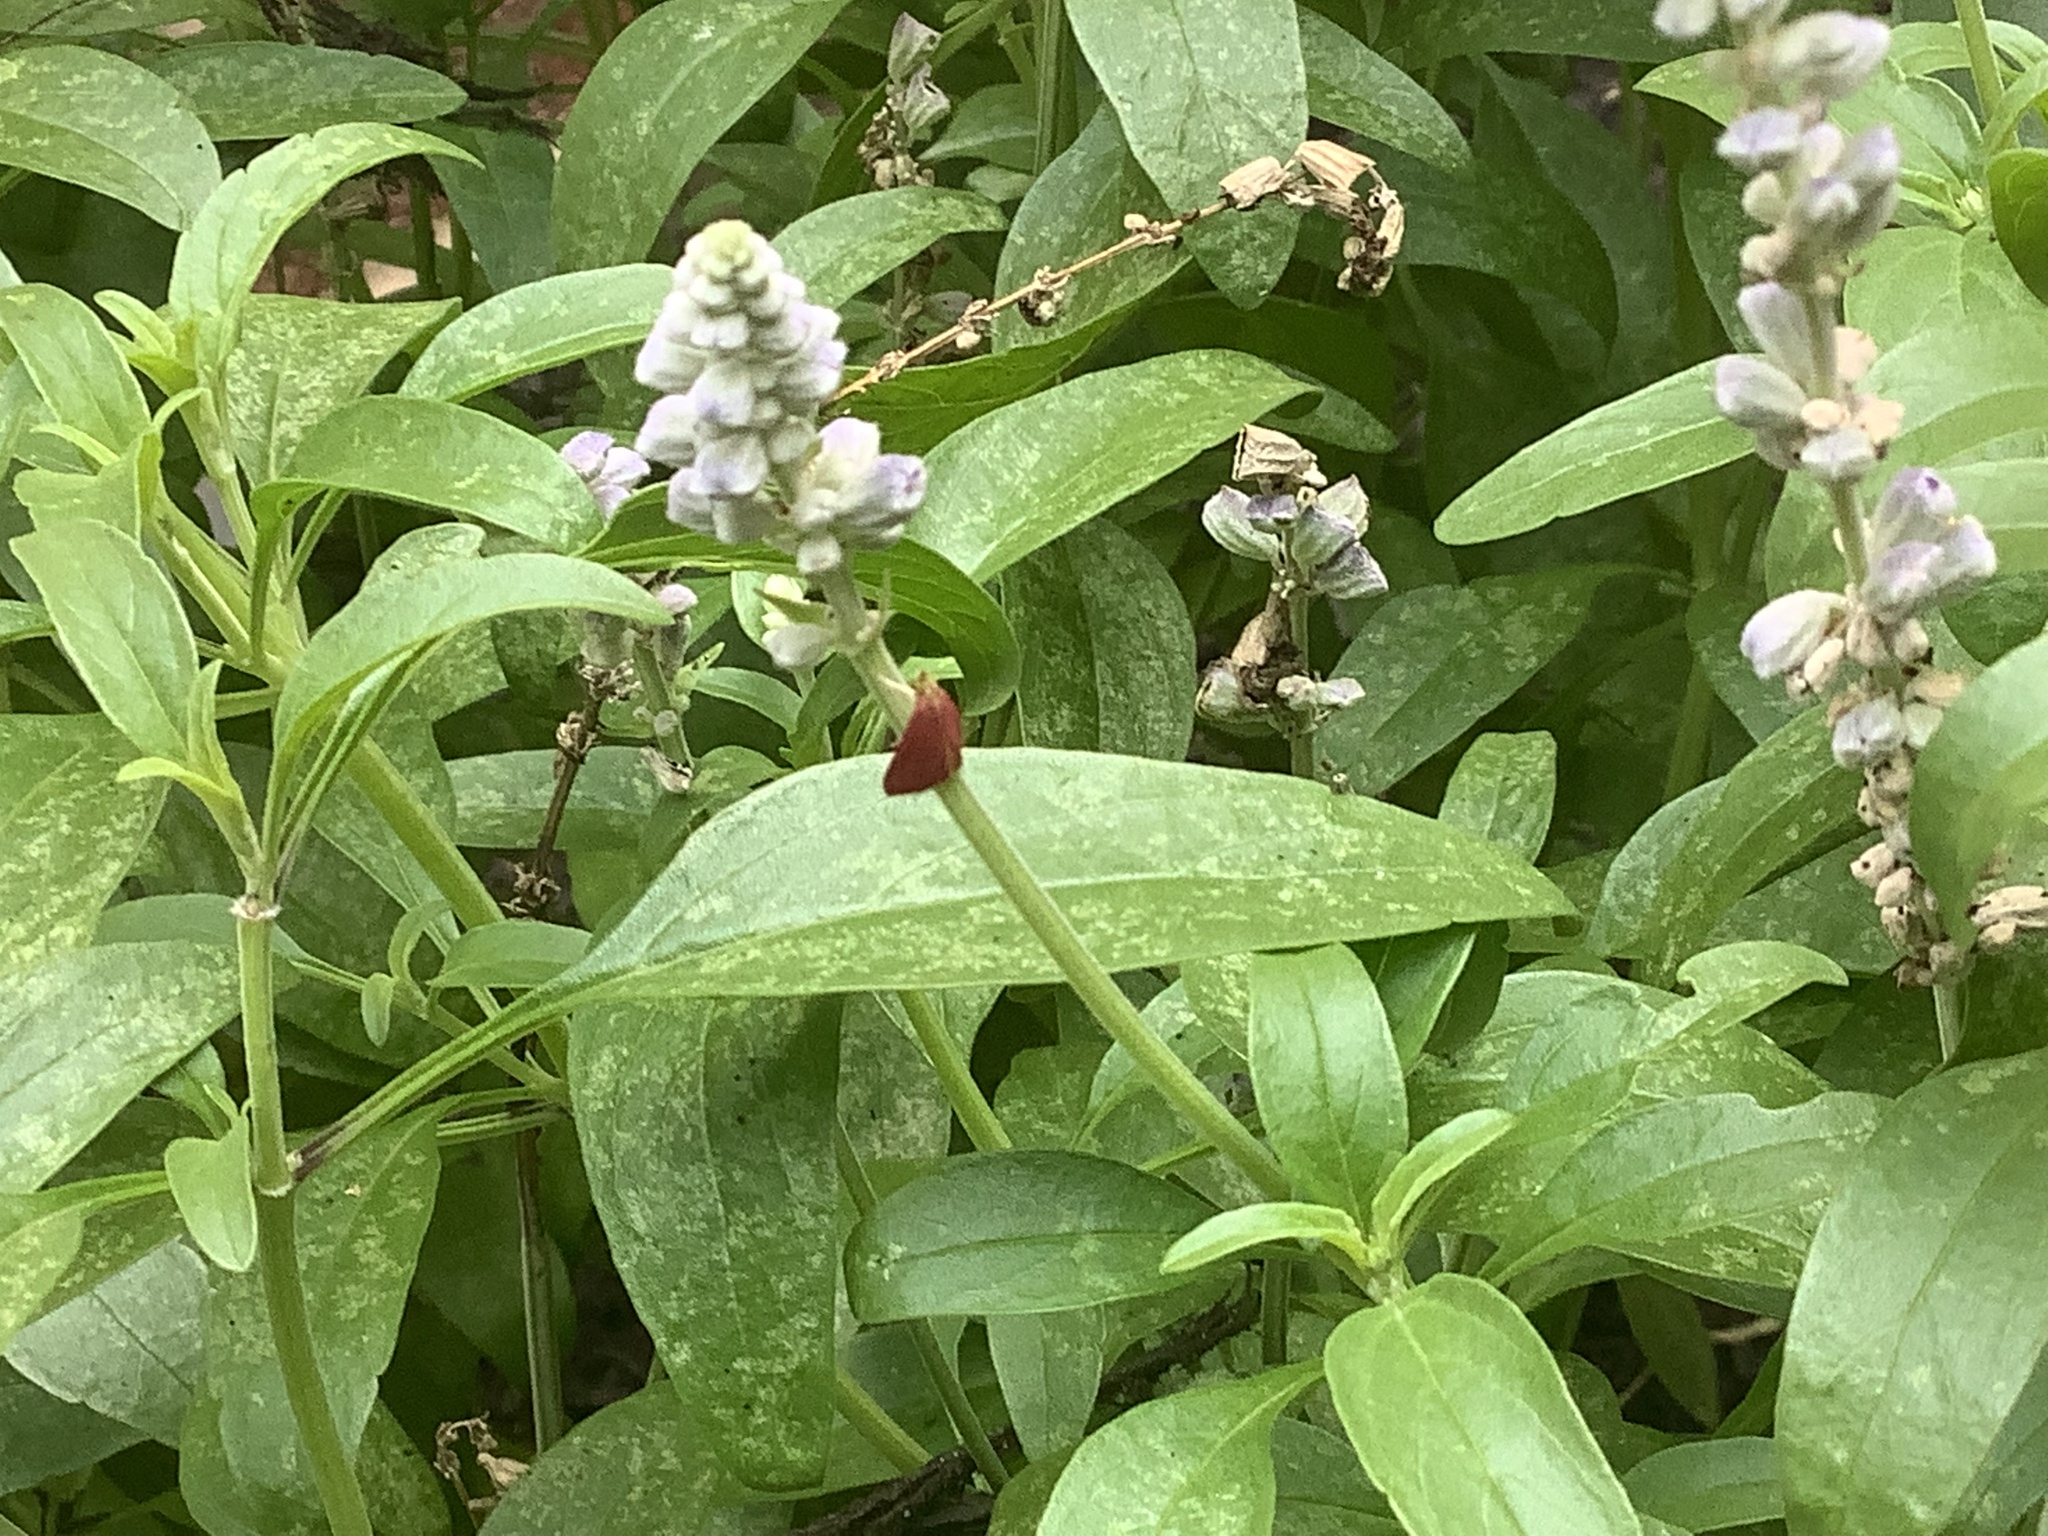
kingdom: Animalia
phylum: Arthropoda
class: Insecta
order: Lepidoptera
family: Crambidae
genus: Pyrausta
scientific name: Pyrausta inornatalis
